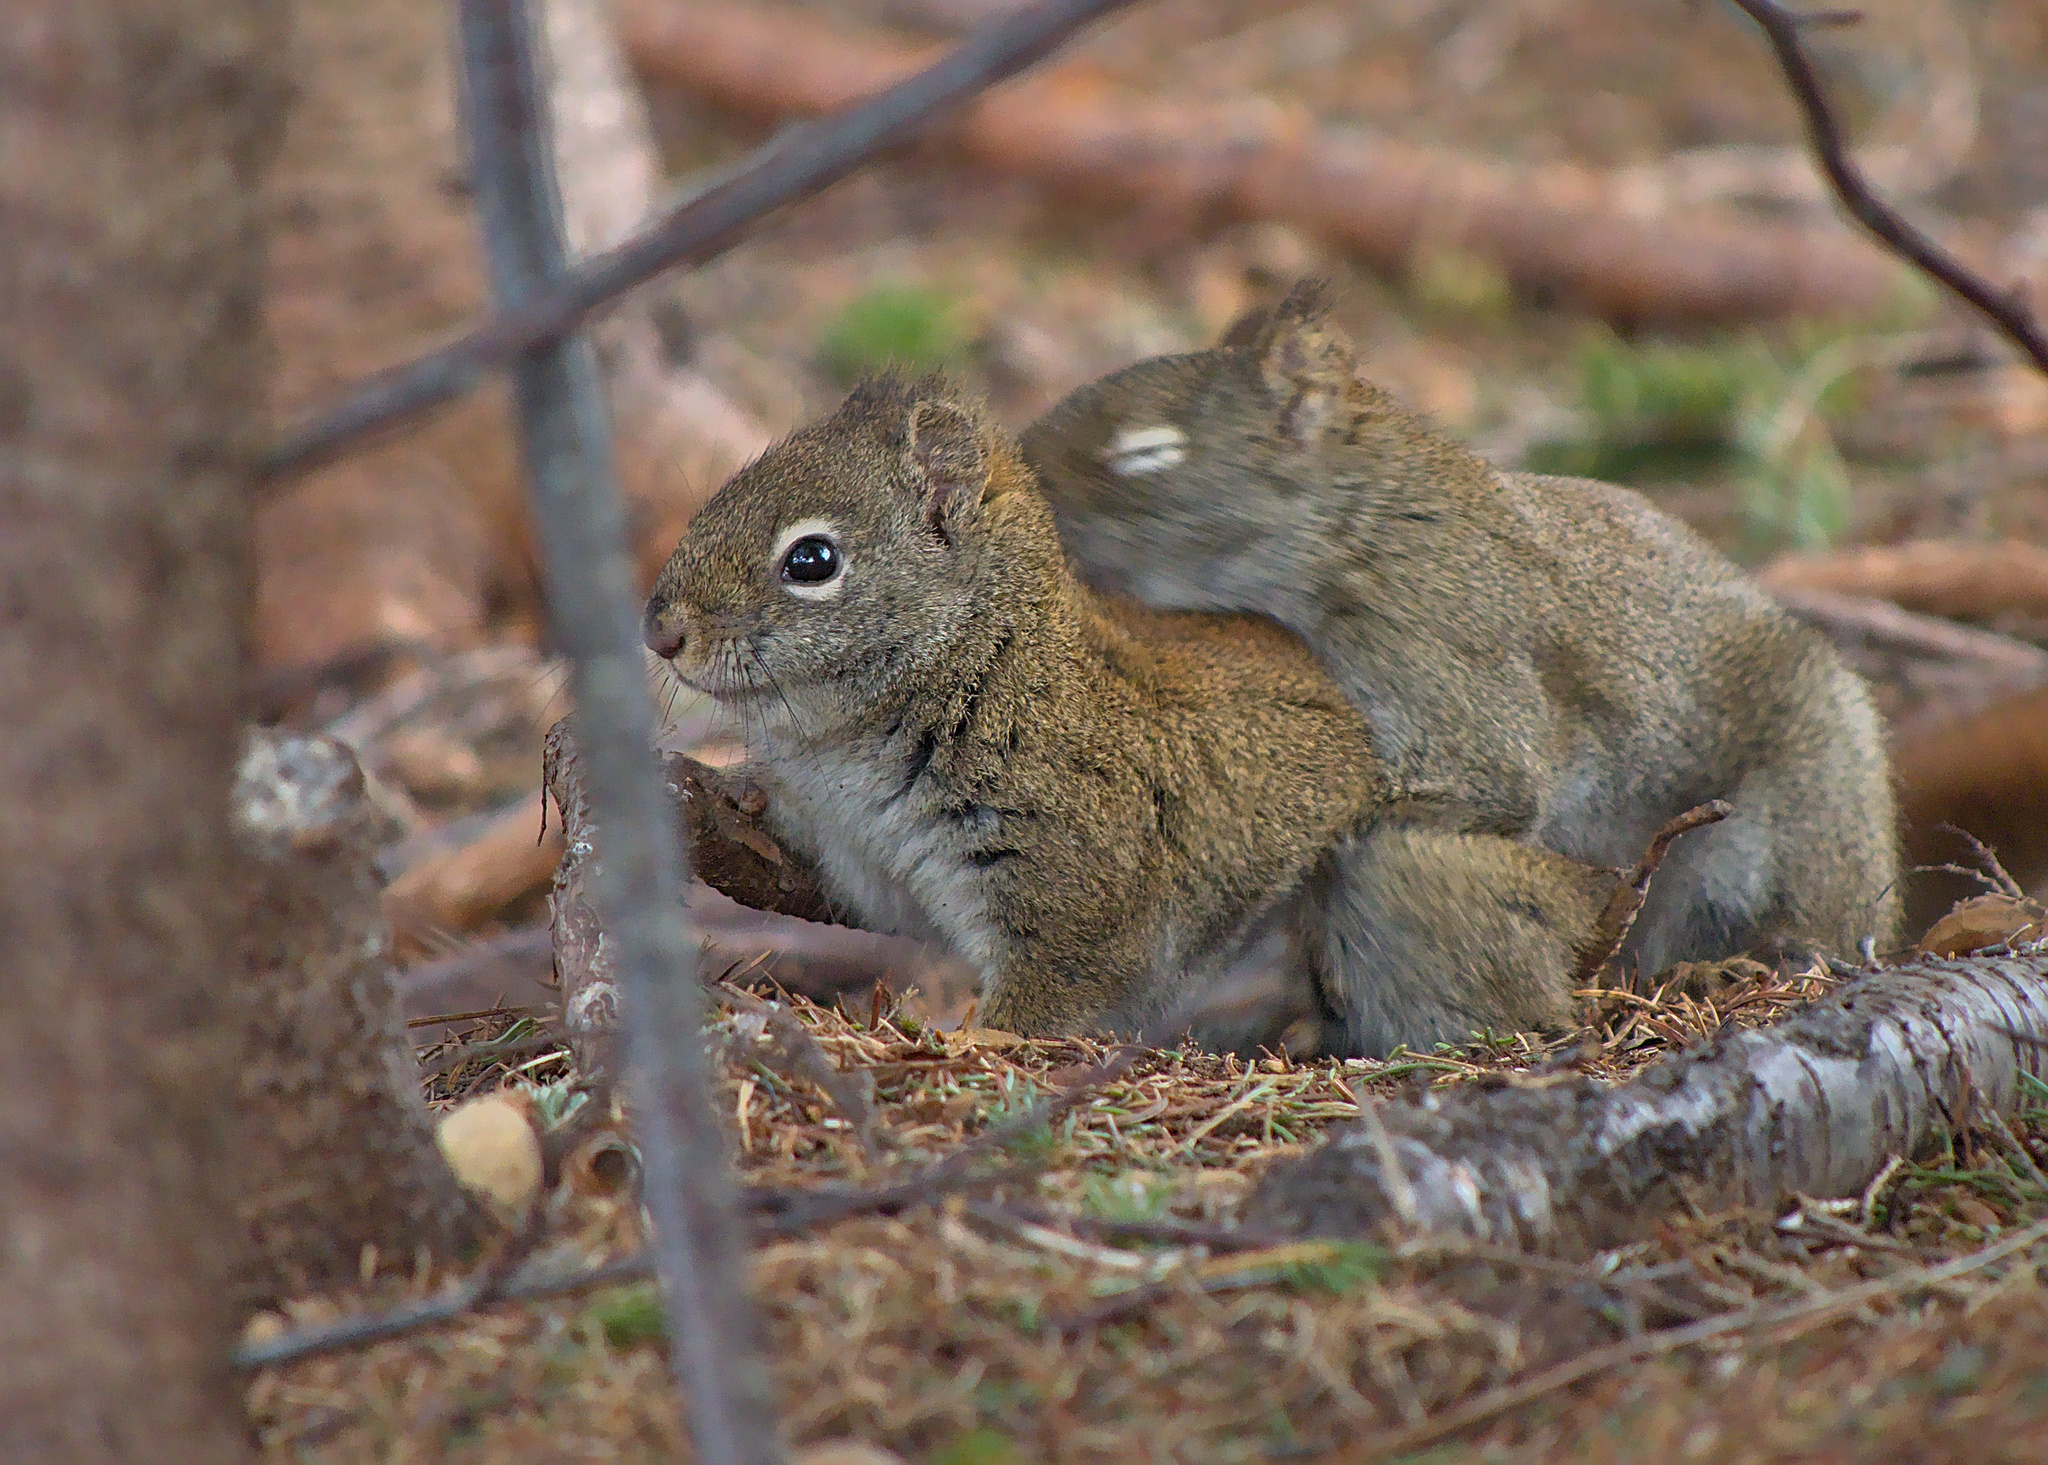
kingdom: Animalia
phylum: Chordata
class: Mammalia
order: Rodentia
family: Sciuridae
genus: Tamiasciurus
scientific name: Tamiasciurus hudsonicus
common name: Red squirrel
